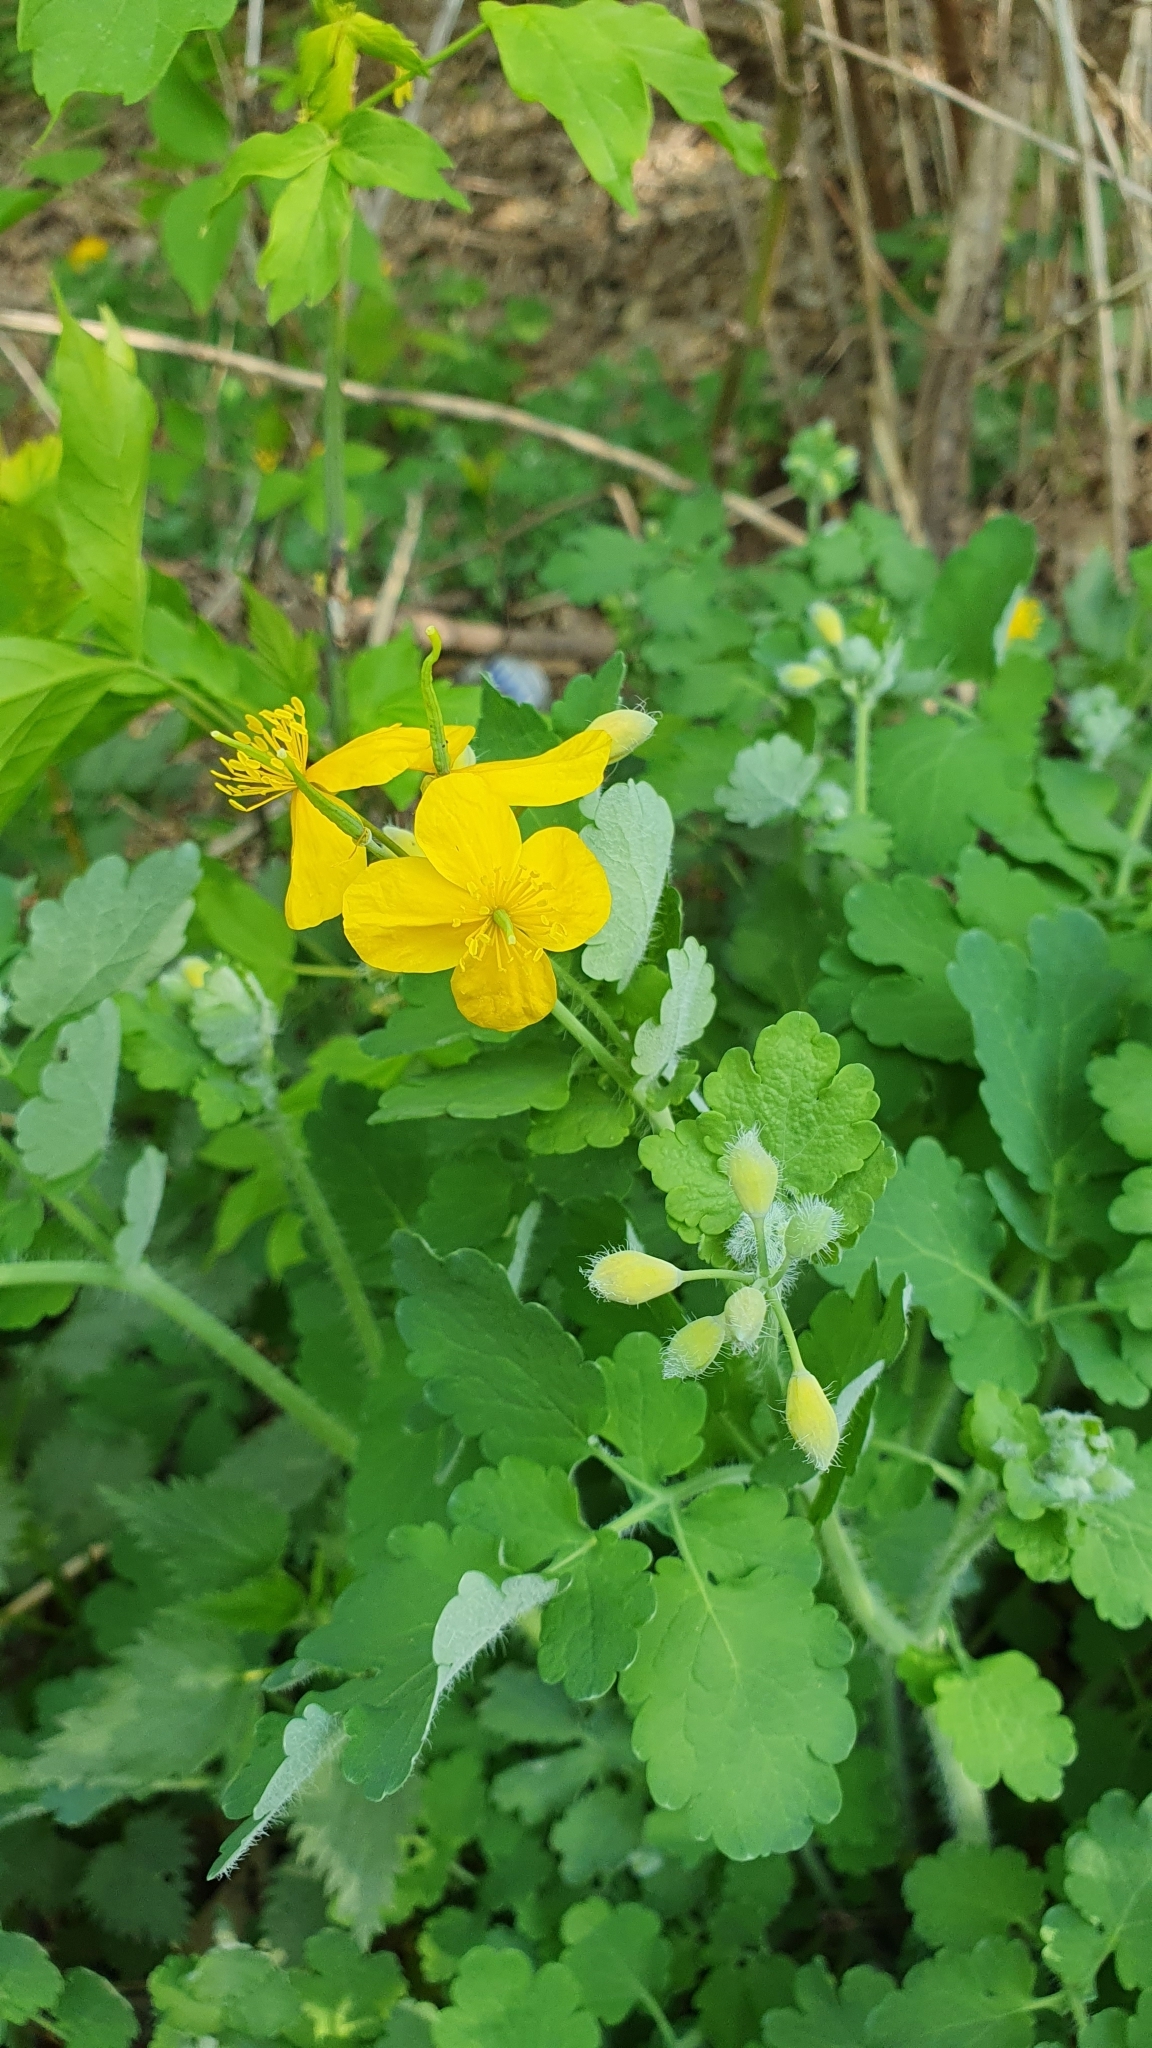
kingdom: Plantae
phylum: Tracheophyta
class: Magnoliopsida
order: Ranunculales
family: Papaveraceae
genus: Chelidonium
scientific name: Chelidonium majus
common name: Greater celandine
